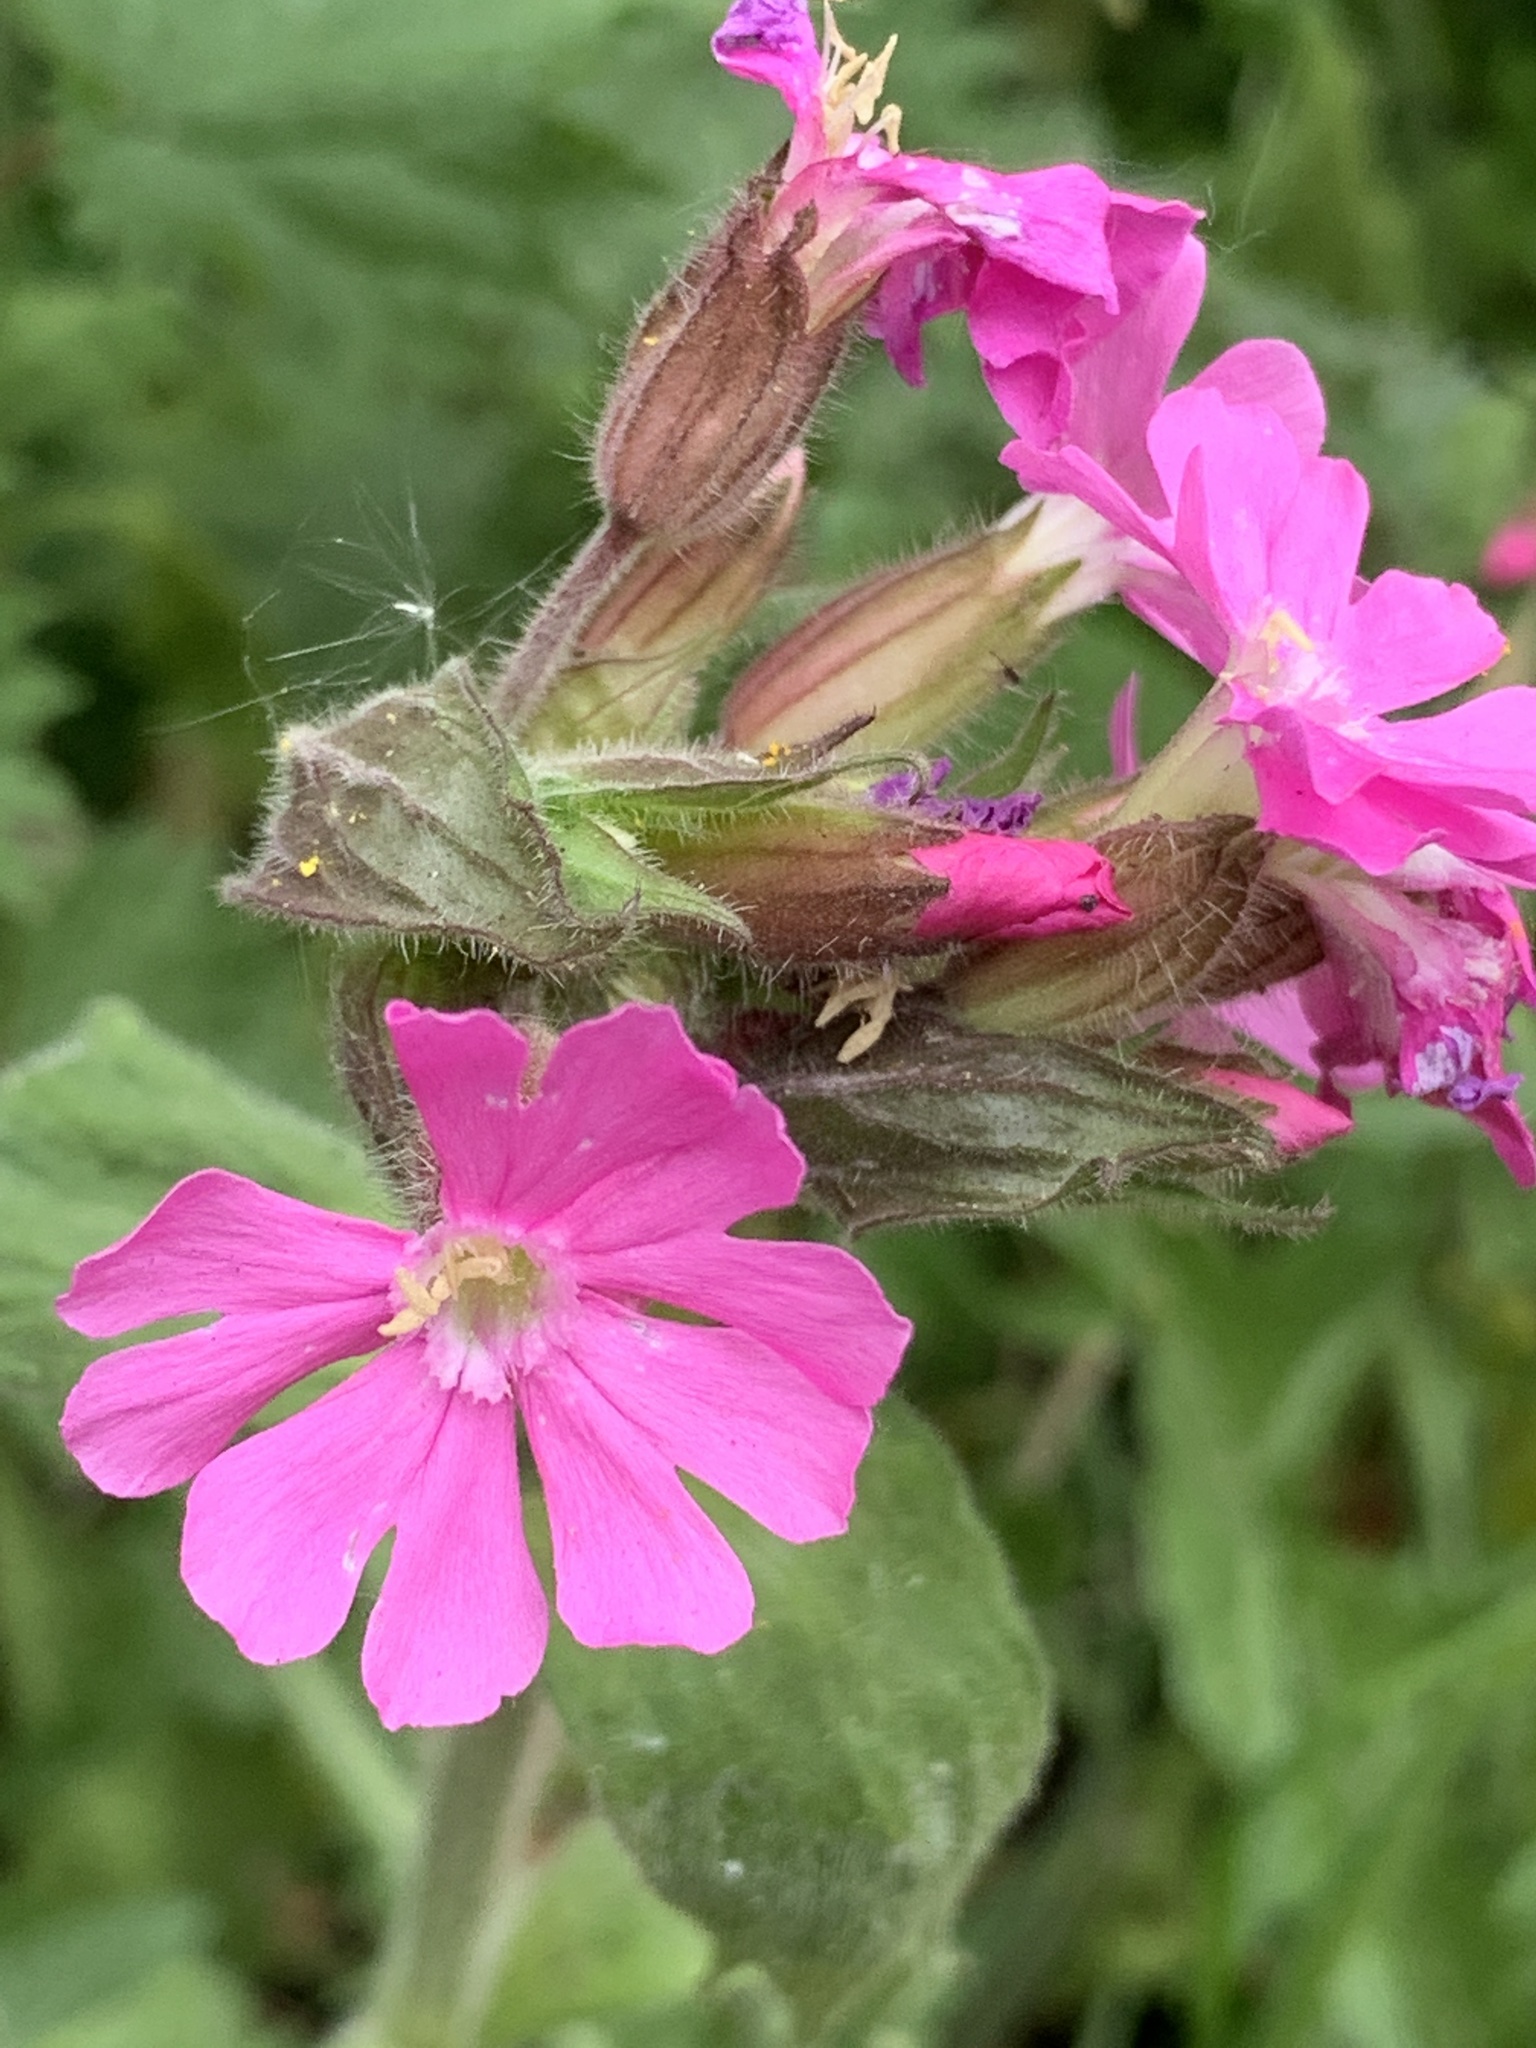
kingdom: Plantae
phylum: Tracheophyta
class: Magnoliopsida
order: Caryophyllales
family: Caryophyllaceae
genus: Silene
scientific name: Silene dioica
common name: Red campion
